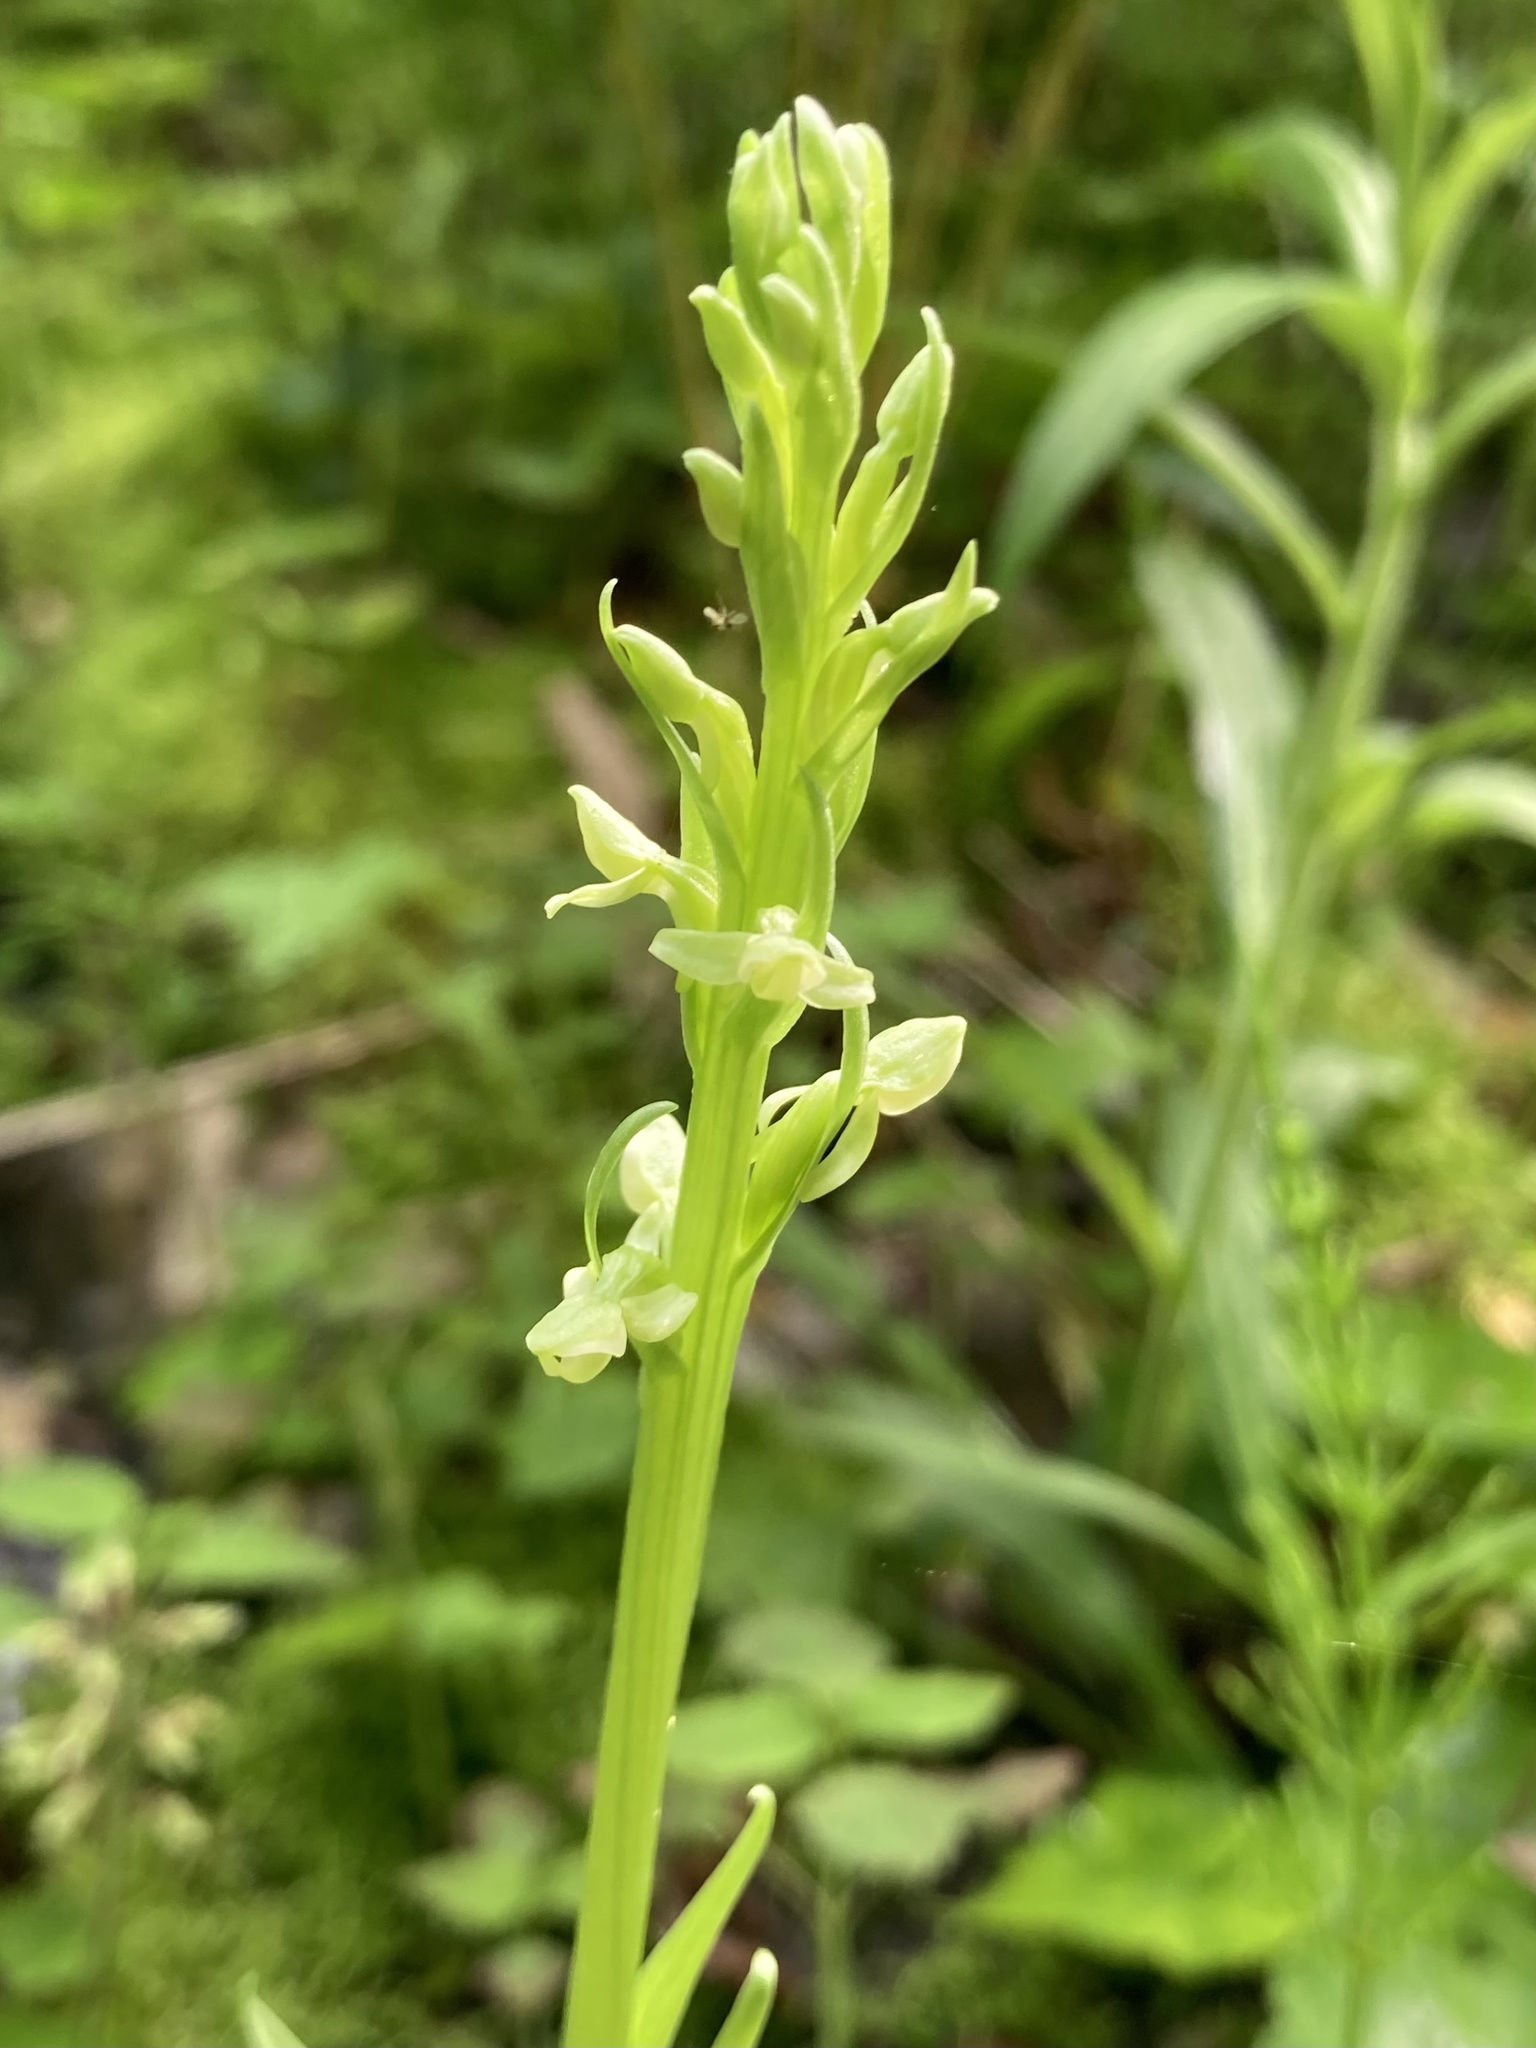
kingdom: Plantae
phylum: Tracheophyta
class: Liliopsida
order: Asparagales
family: Orchidaceae
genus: Platanthera
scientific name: Platanthera huronensis
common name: Fragrant green orchid
